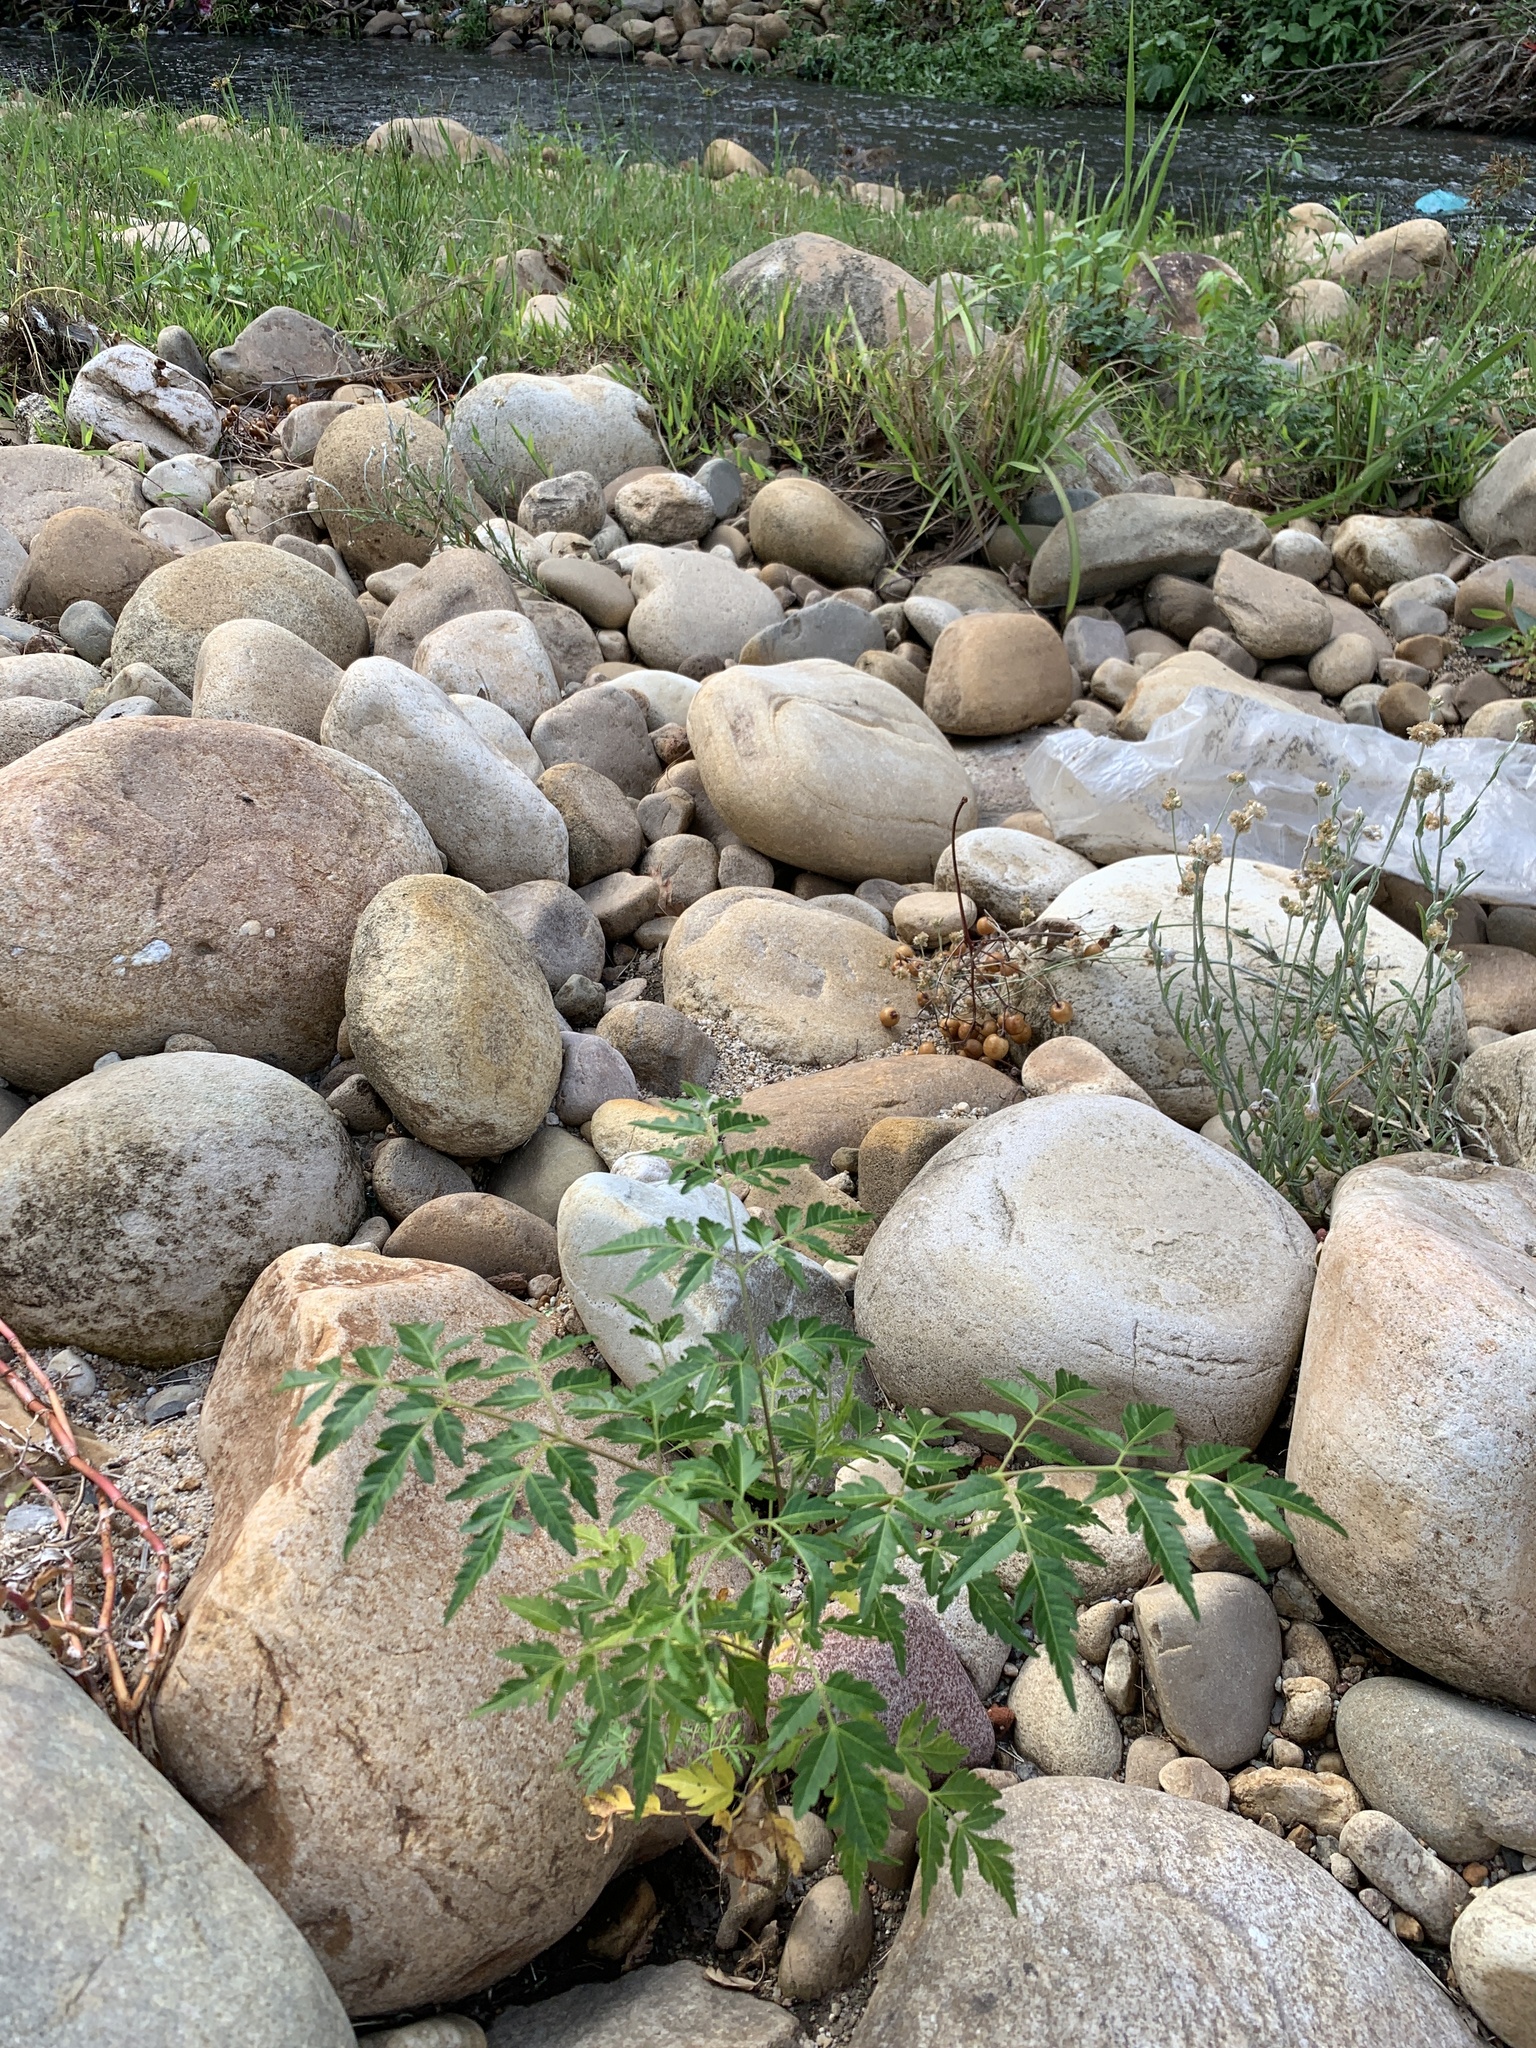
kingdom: Plantae
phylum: Tracheophyta
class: Magnoliopsida
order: Sapindales
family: Meliaceae
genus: Melia
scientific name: Melia azedarach
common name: Chinaberrytree
